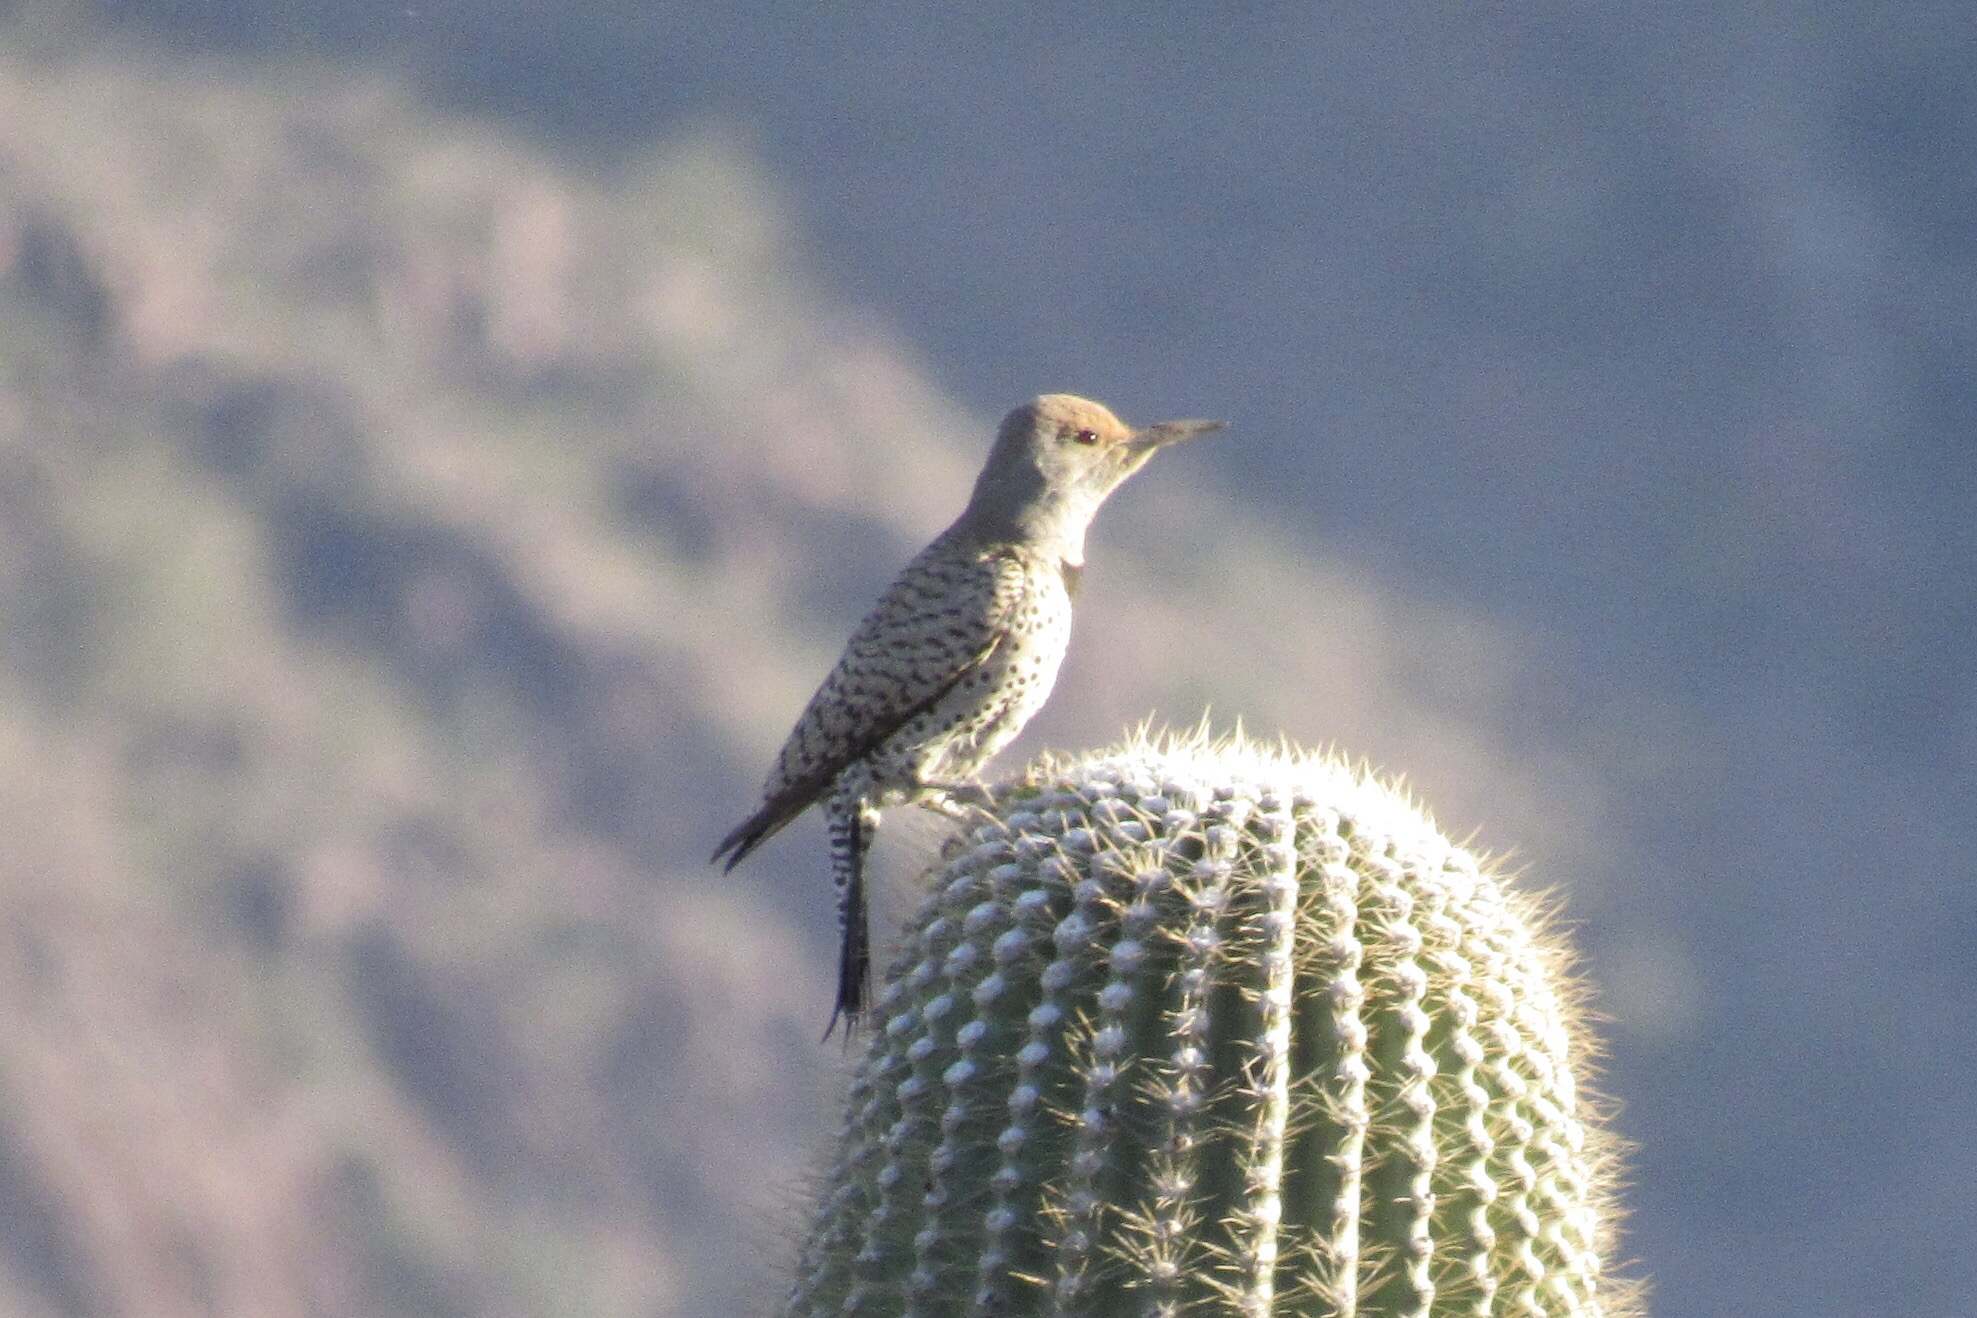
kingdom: Animalia
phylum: Chordata
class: Aves
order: Piciformes
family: Picidae
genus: Colaptes
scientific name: Colaptes chrysoides
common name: Gilded flicker
